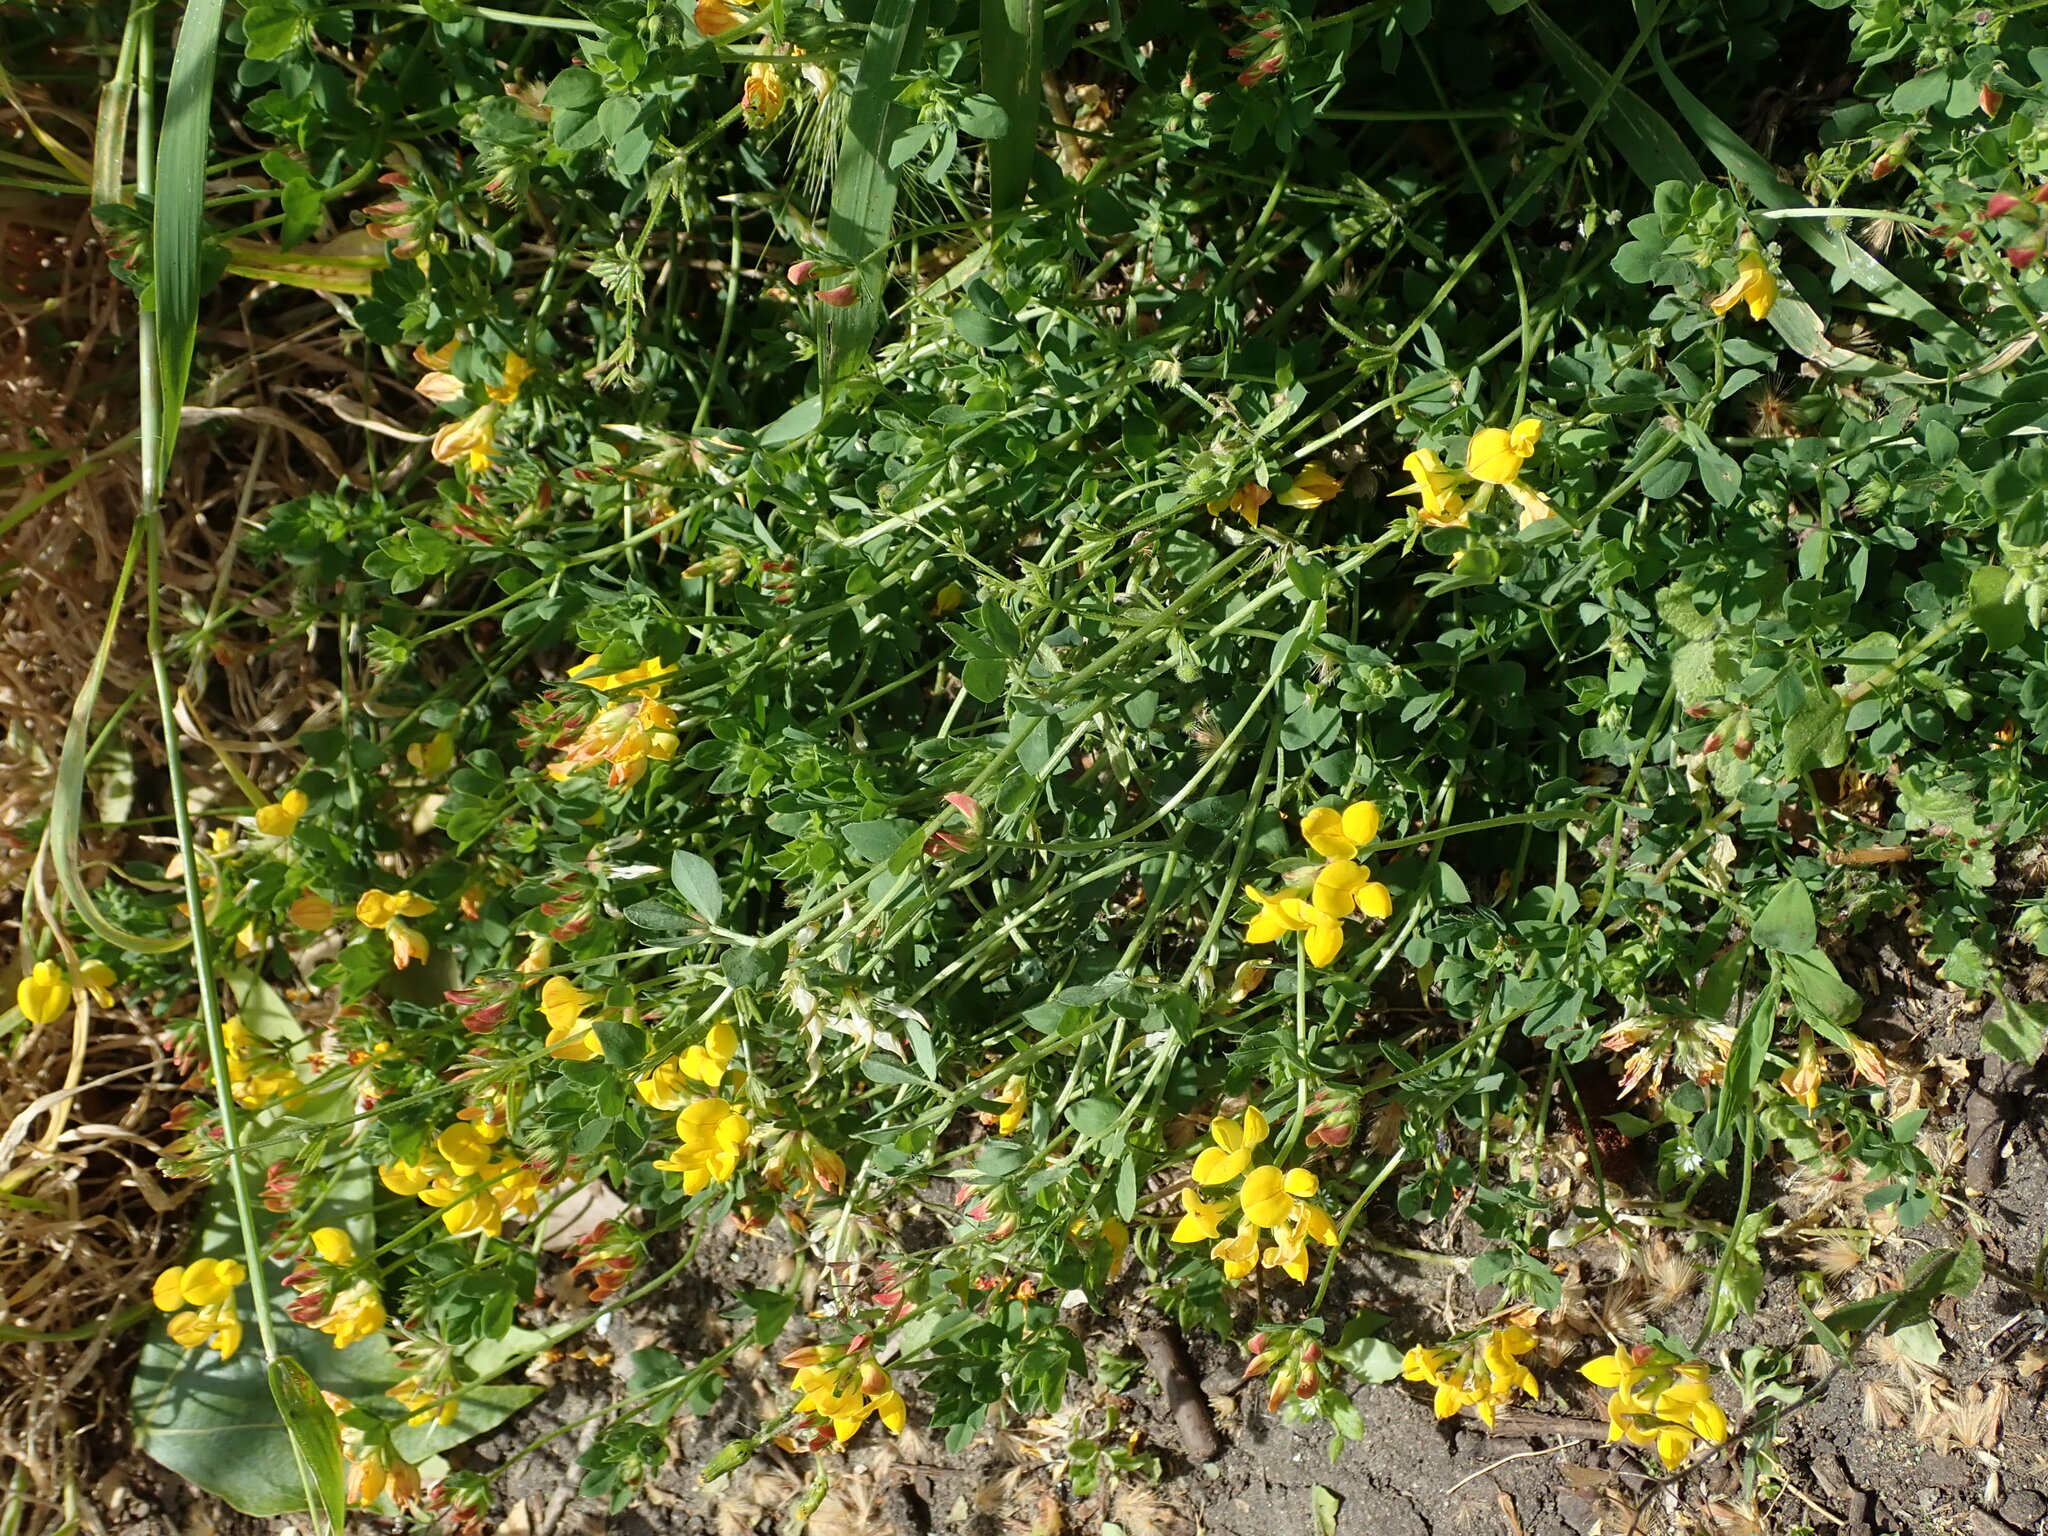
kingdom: Plantae
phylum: Tracheophyta
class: Magnoliopsida
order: Fabales
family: Fabaceae
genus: Lotus
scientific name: Lotus corniculatus
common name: Common bird's-foot-trefoil
